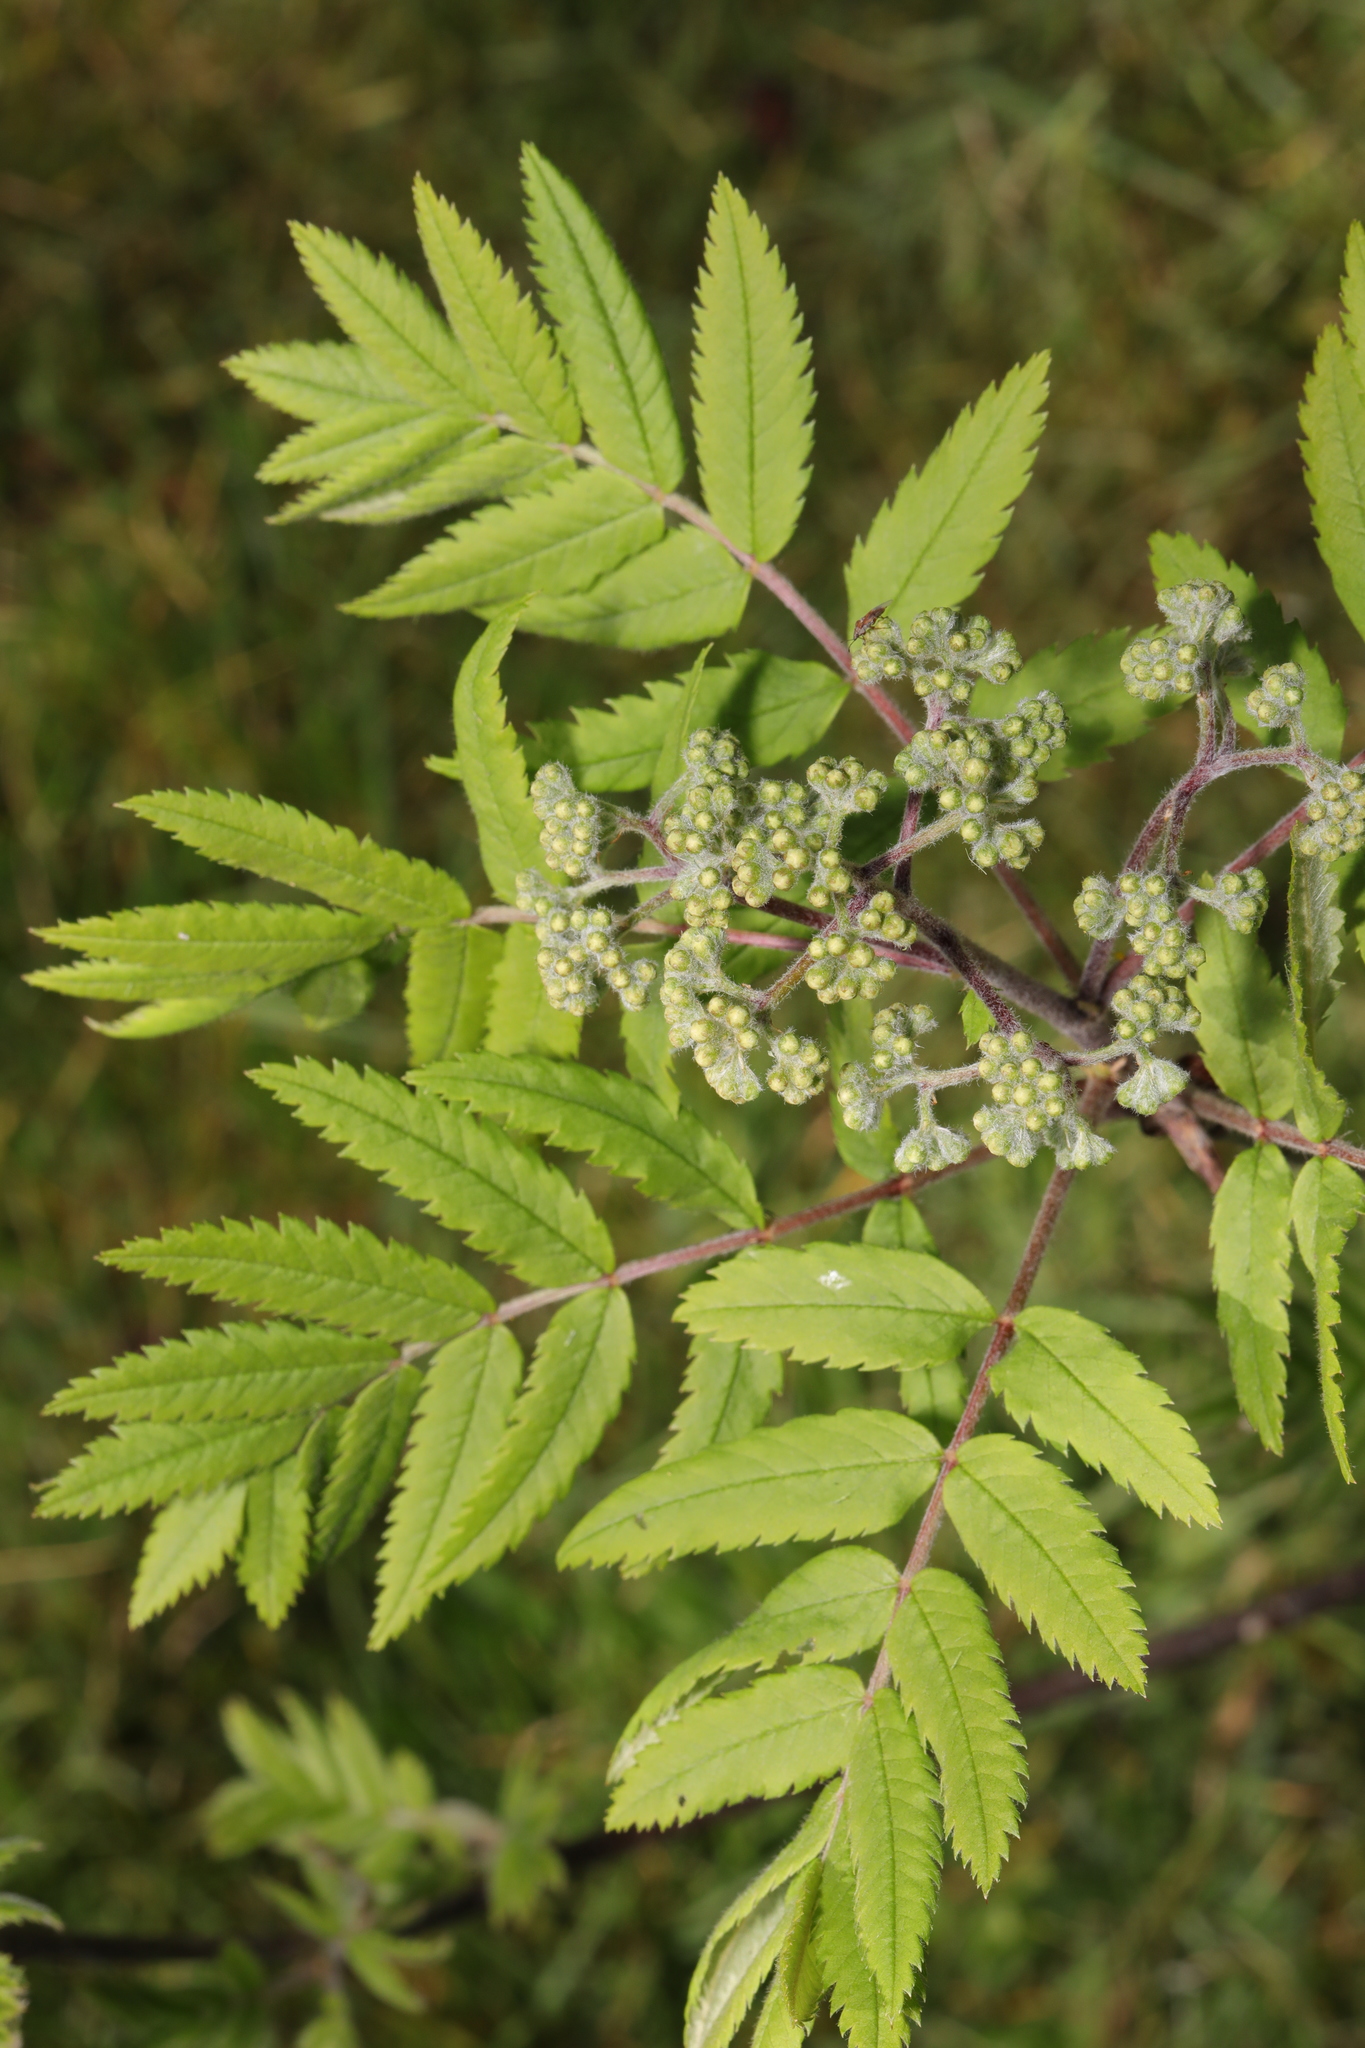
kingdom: Plantae
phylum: Tracheophyta
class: Magnoliopsida
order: Rosales
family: Rosaceae
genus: Sorbus
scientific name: Sorbus aucuparia
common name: Rowan
